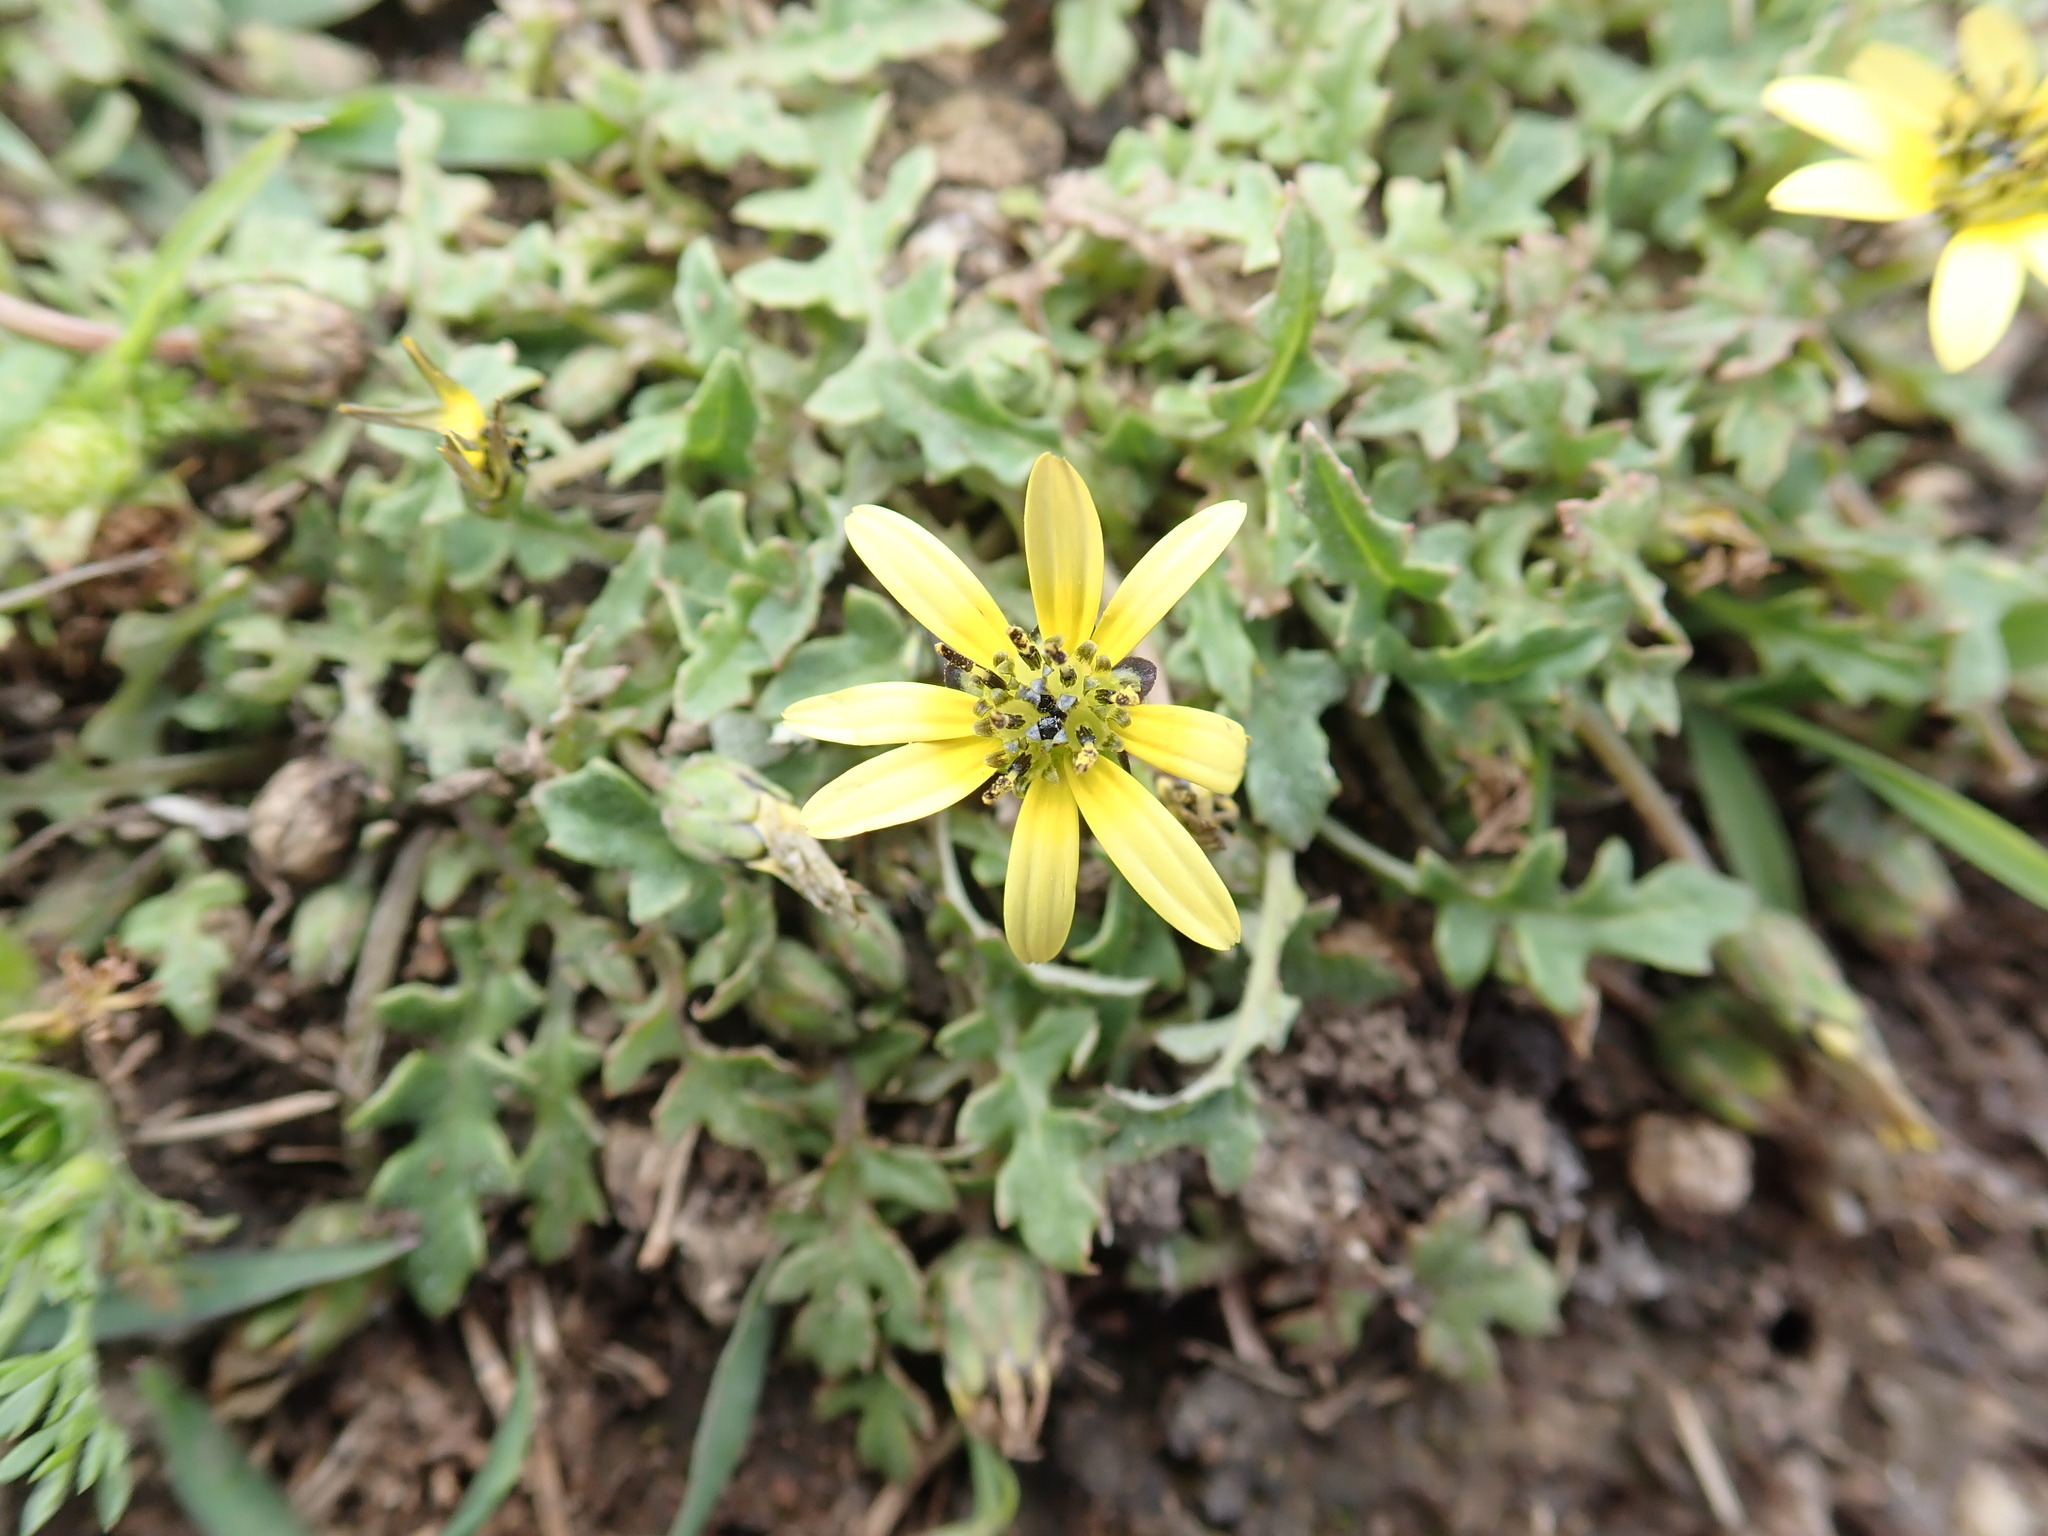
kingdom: Plantae
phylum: Tracheophyta
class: Magnoliopsida
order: Asterales
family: Asteraceae
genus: Arctotheca
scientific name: Arctotheca calendula
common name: Capeweed
